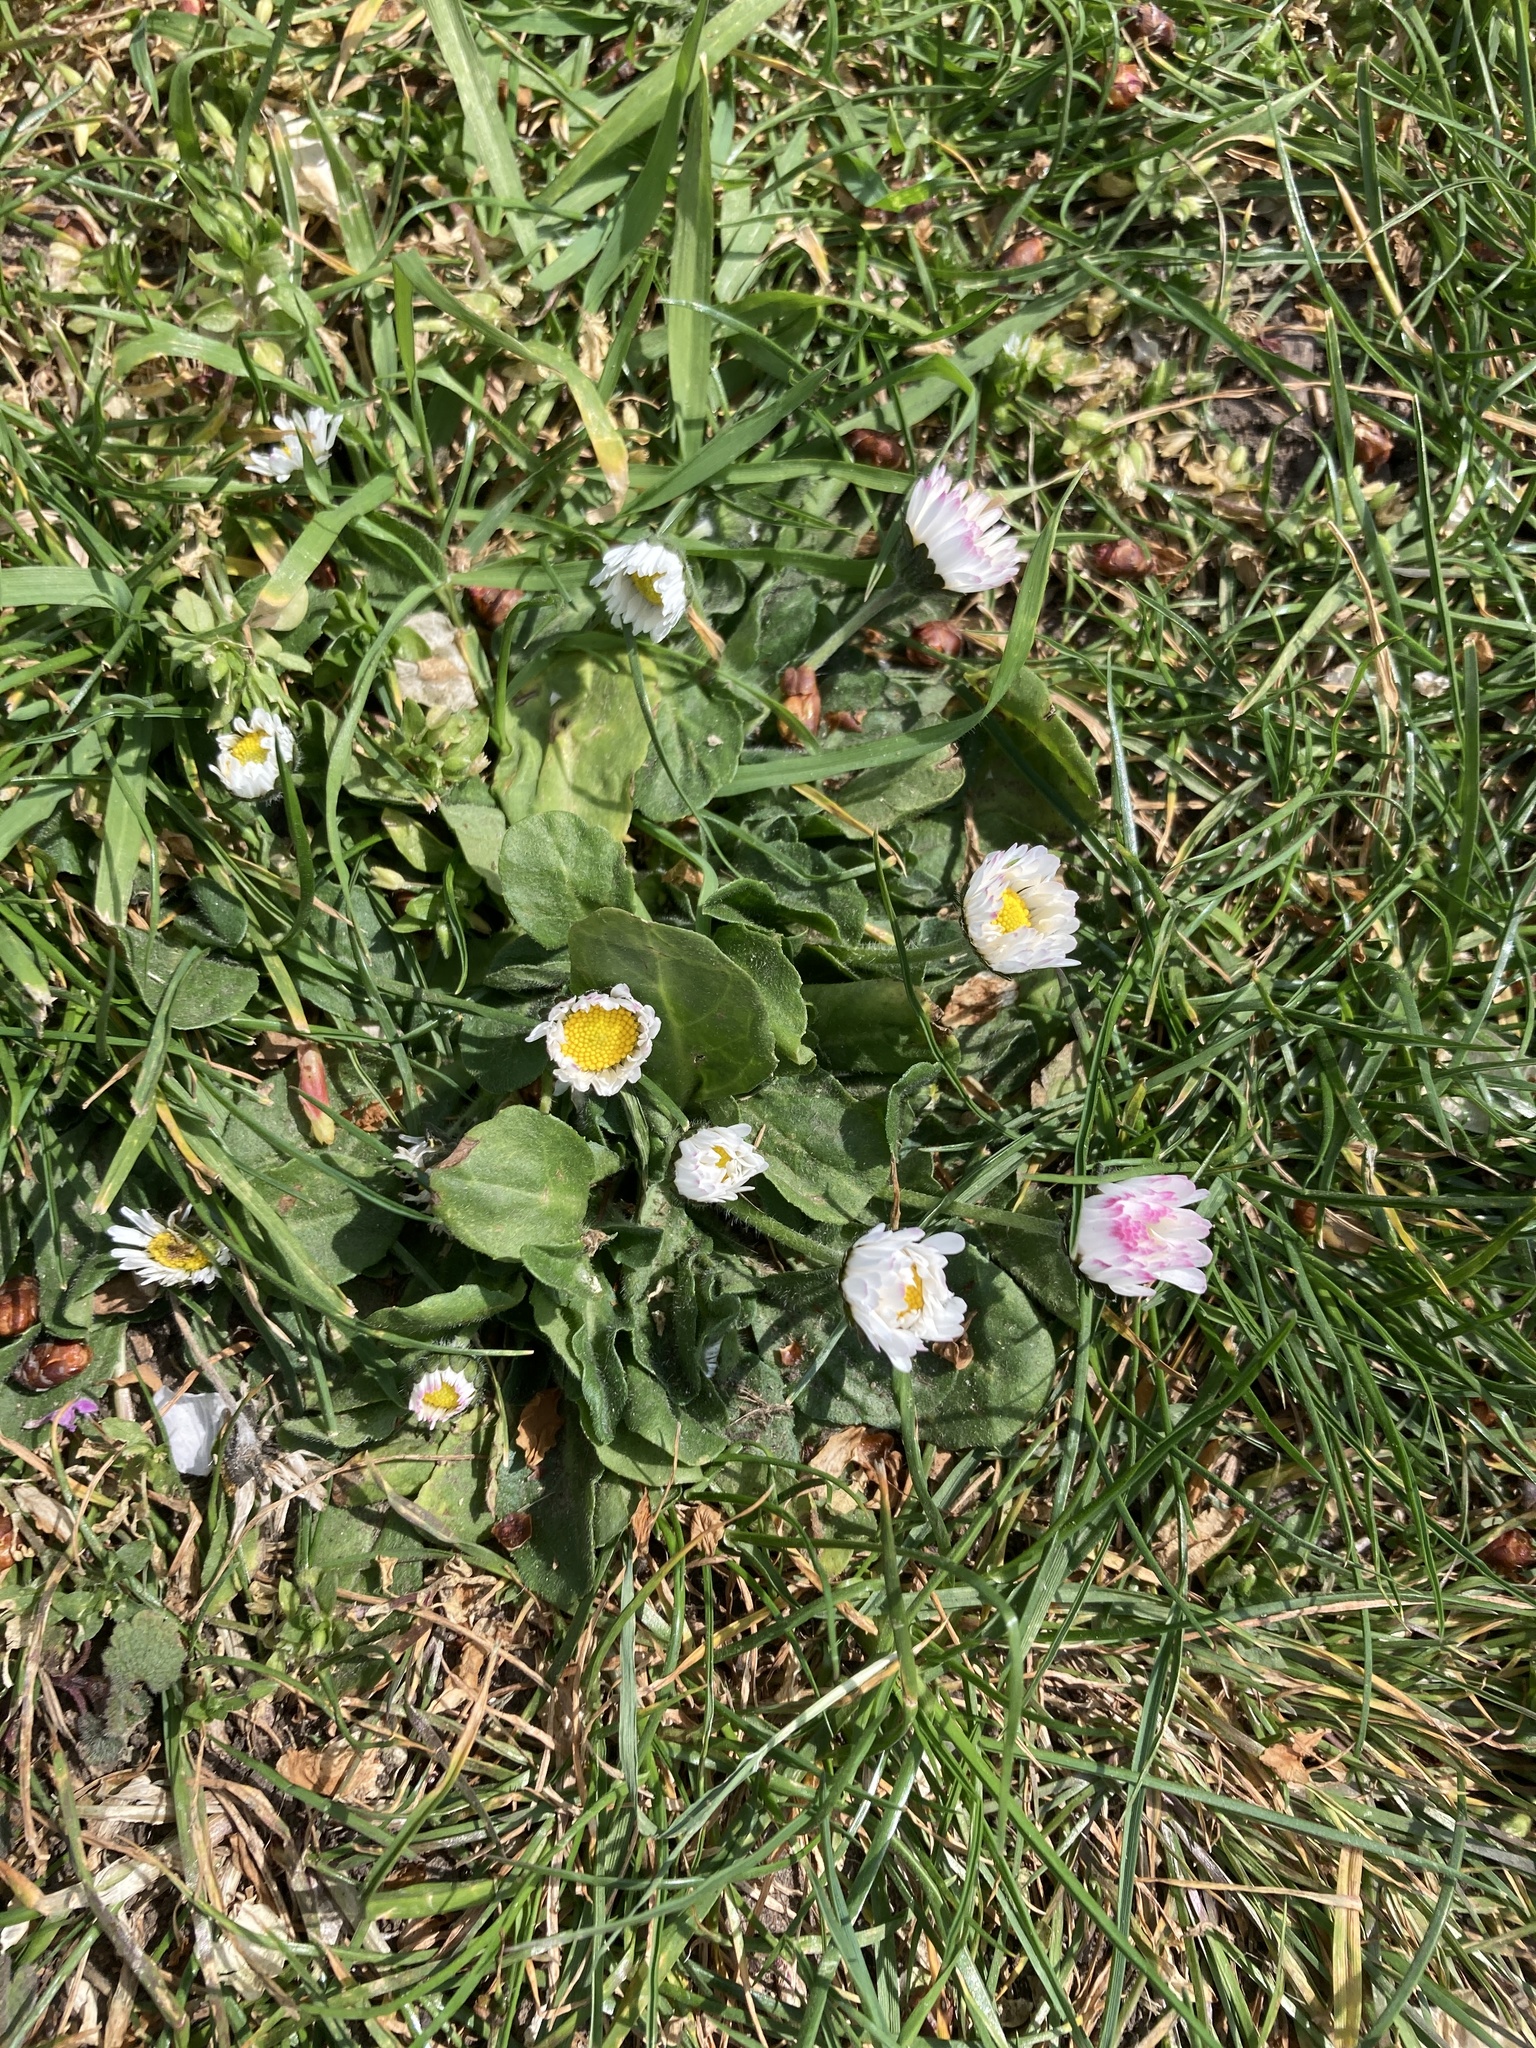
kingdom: Plantae
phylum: Tracheophyta
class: Magnoliopsida
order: Asterales
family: Asteraceae
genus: Bellis
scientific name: Bellis perennis
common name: Lawndaisy
